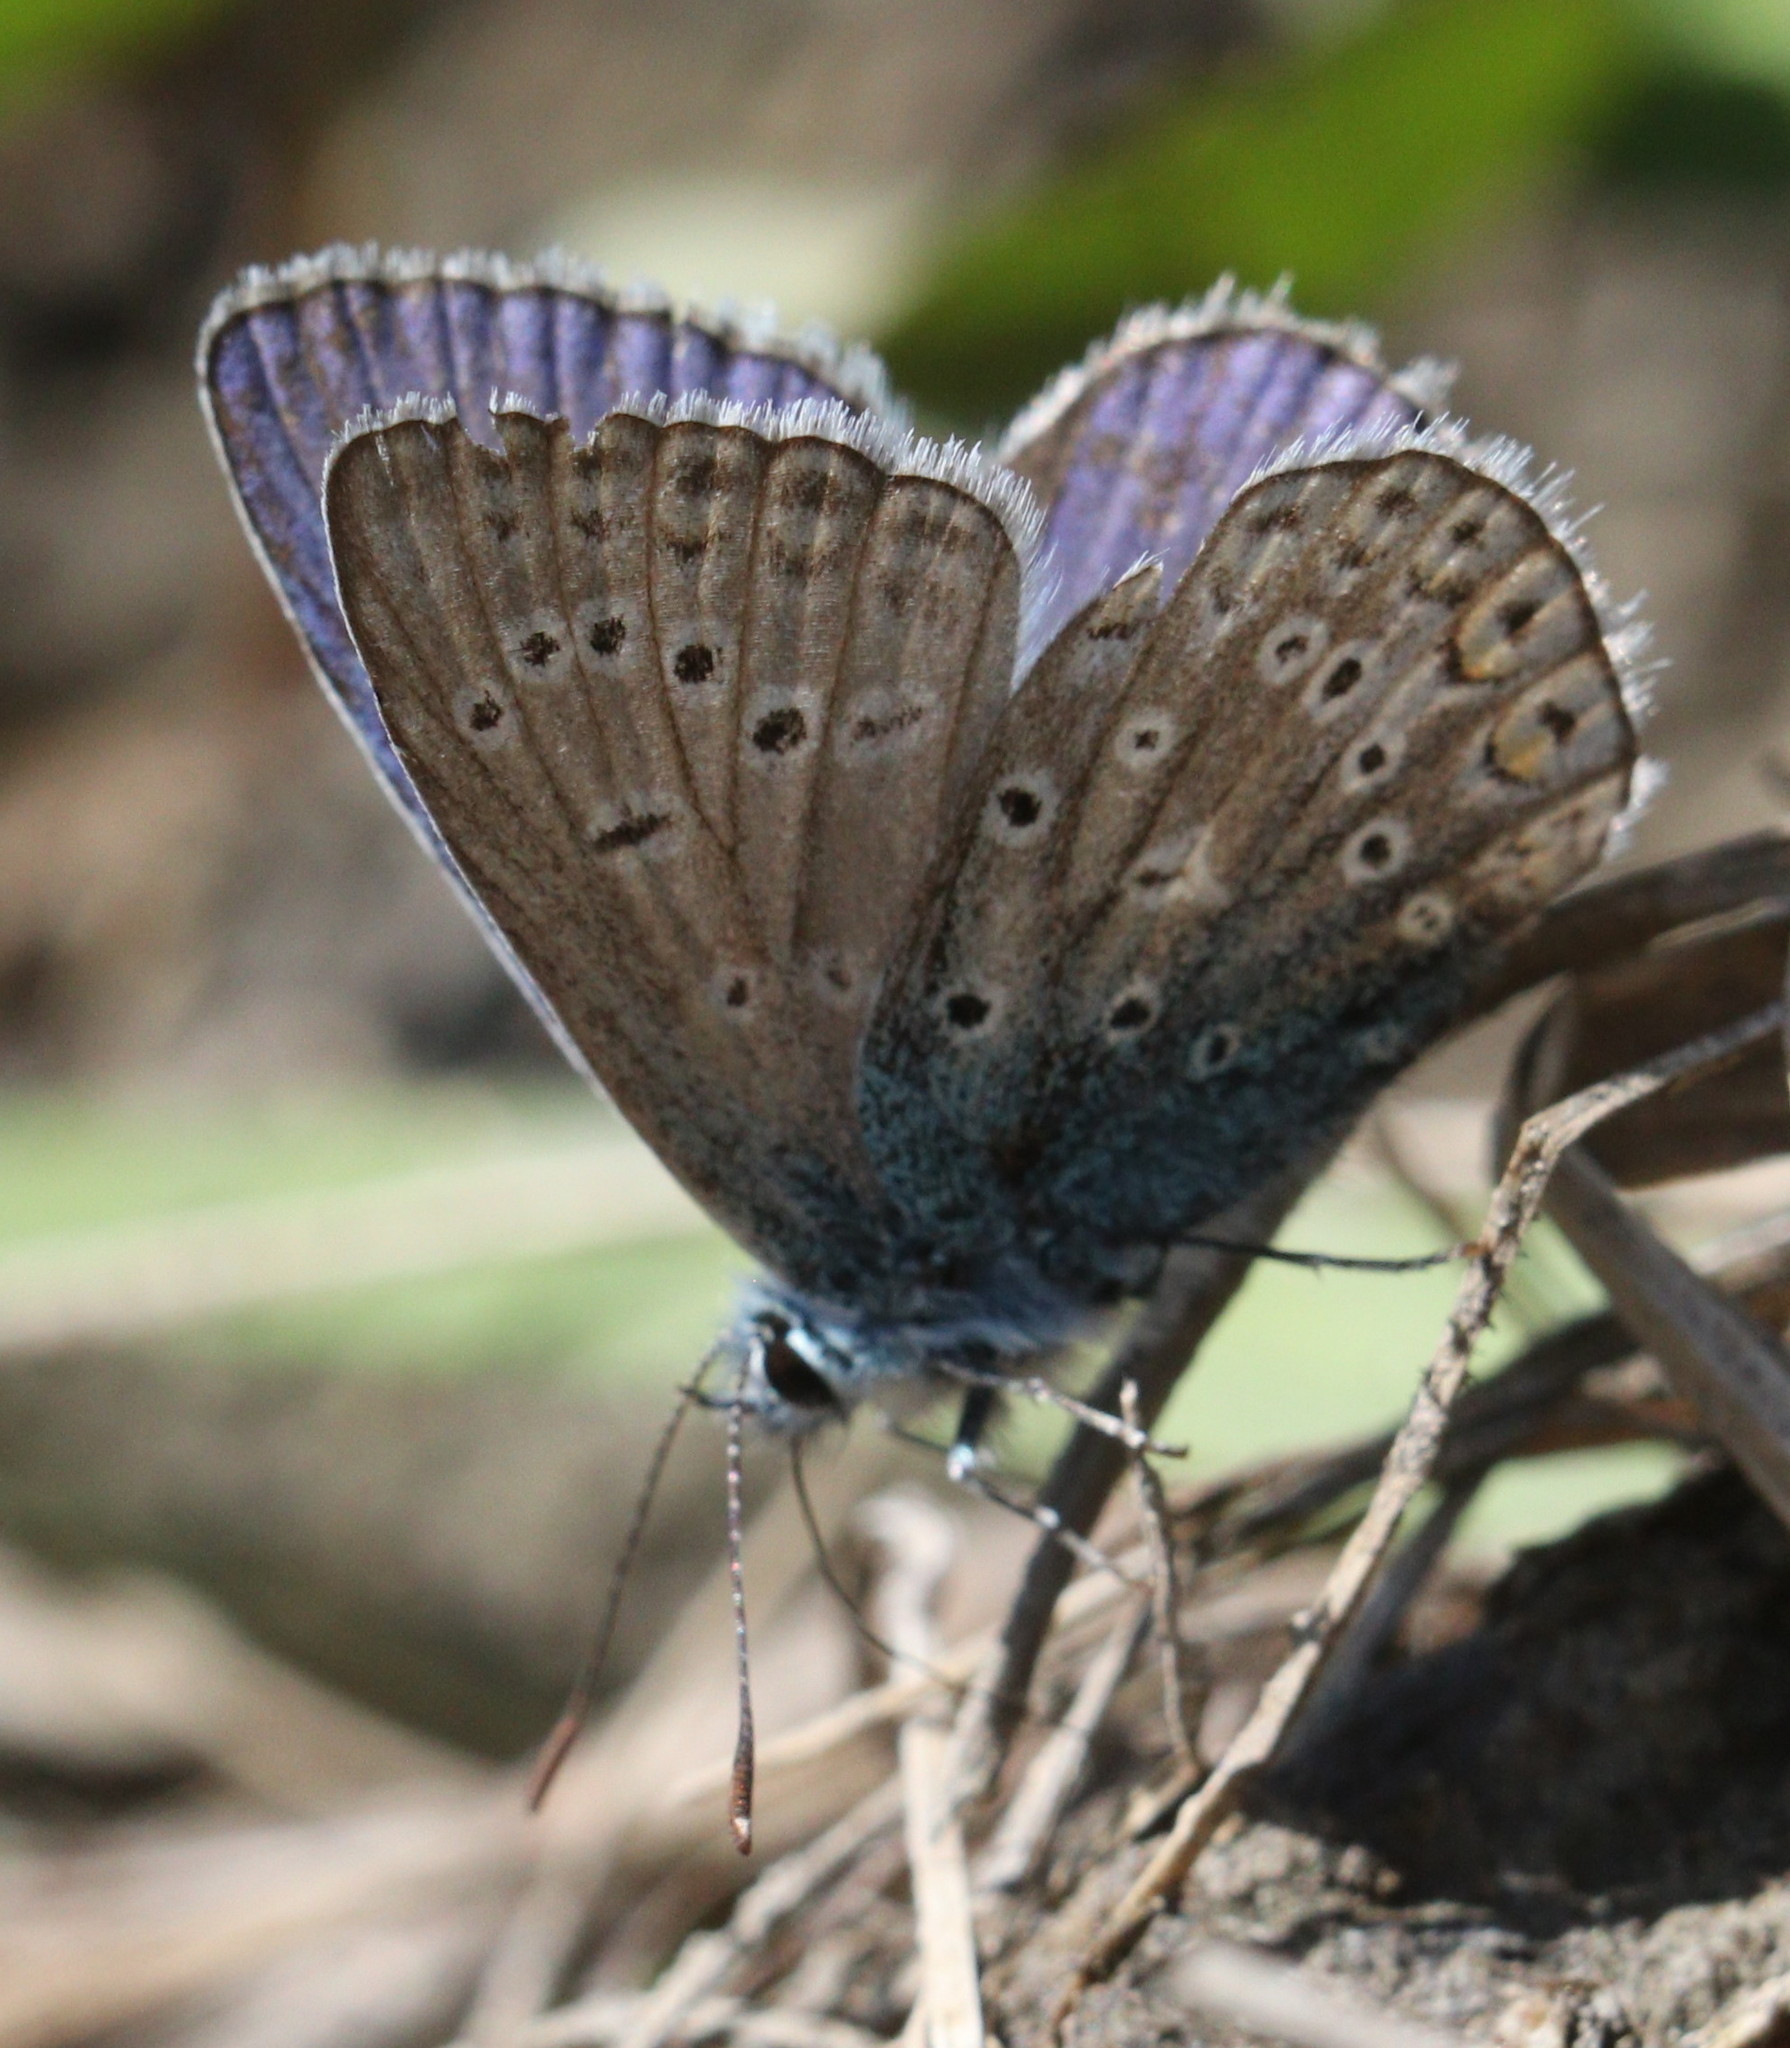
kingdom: Animalia
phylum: Arthropoda
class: Insecta
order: Lepidoptera
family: Lycaenidae
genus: Polyommatus
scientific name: Polyommatus icarus
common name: Common blue
